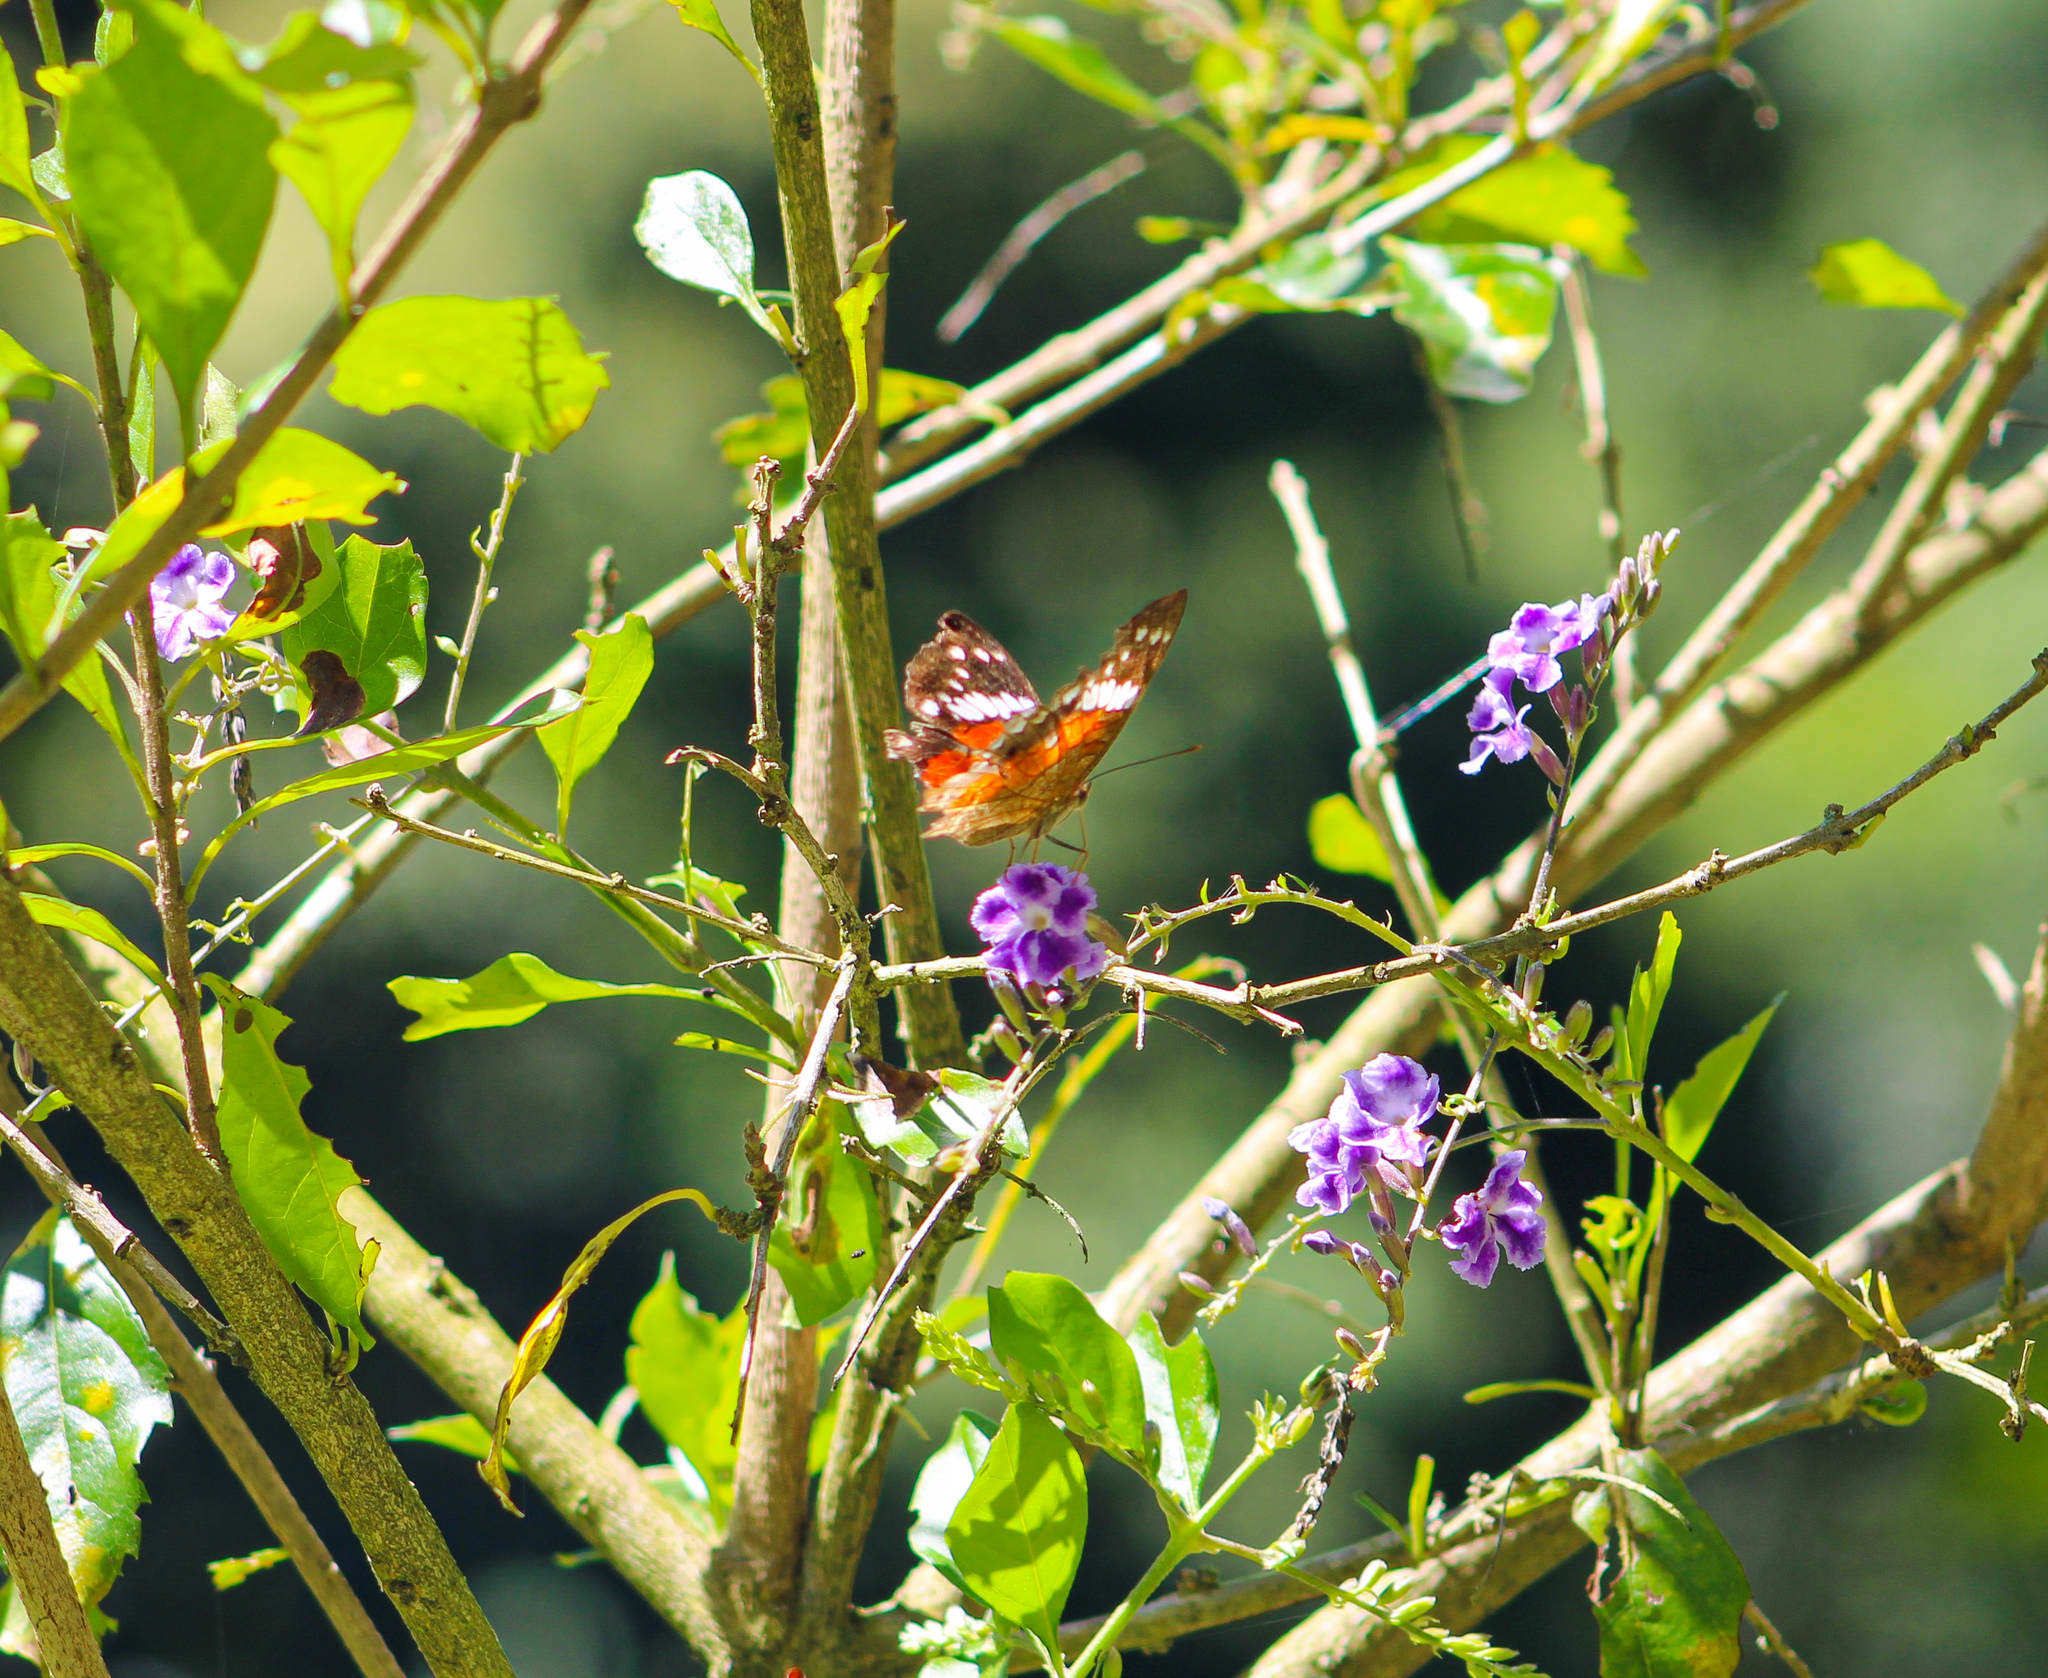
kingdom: Animalia
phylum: Arthropoda
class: Insecta
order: Lepidoptera
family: Nymphalidae
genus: Anartia
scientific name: Anartia amathea
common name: Red peacock
